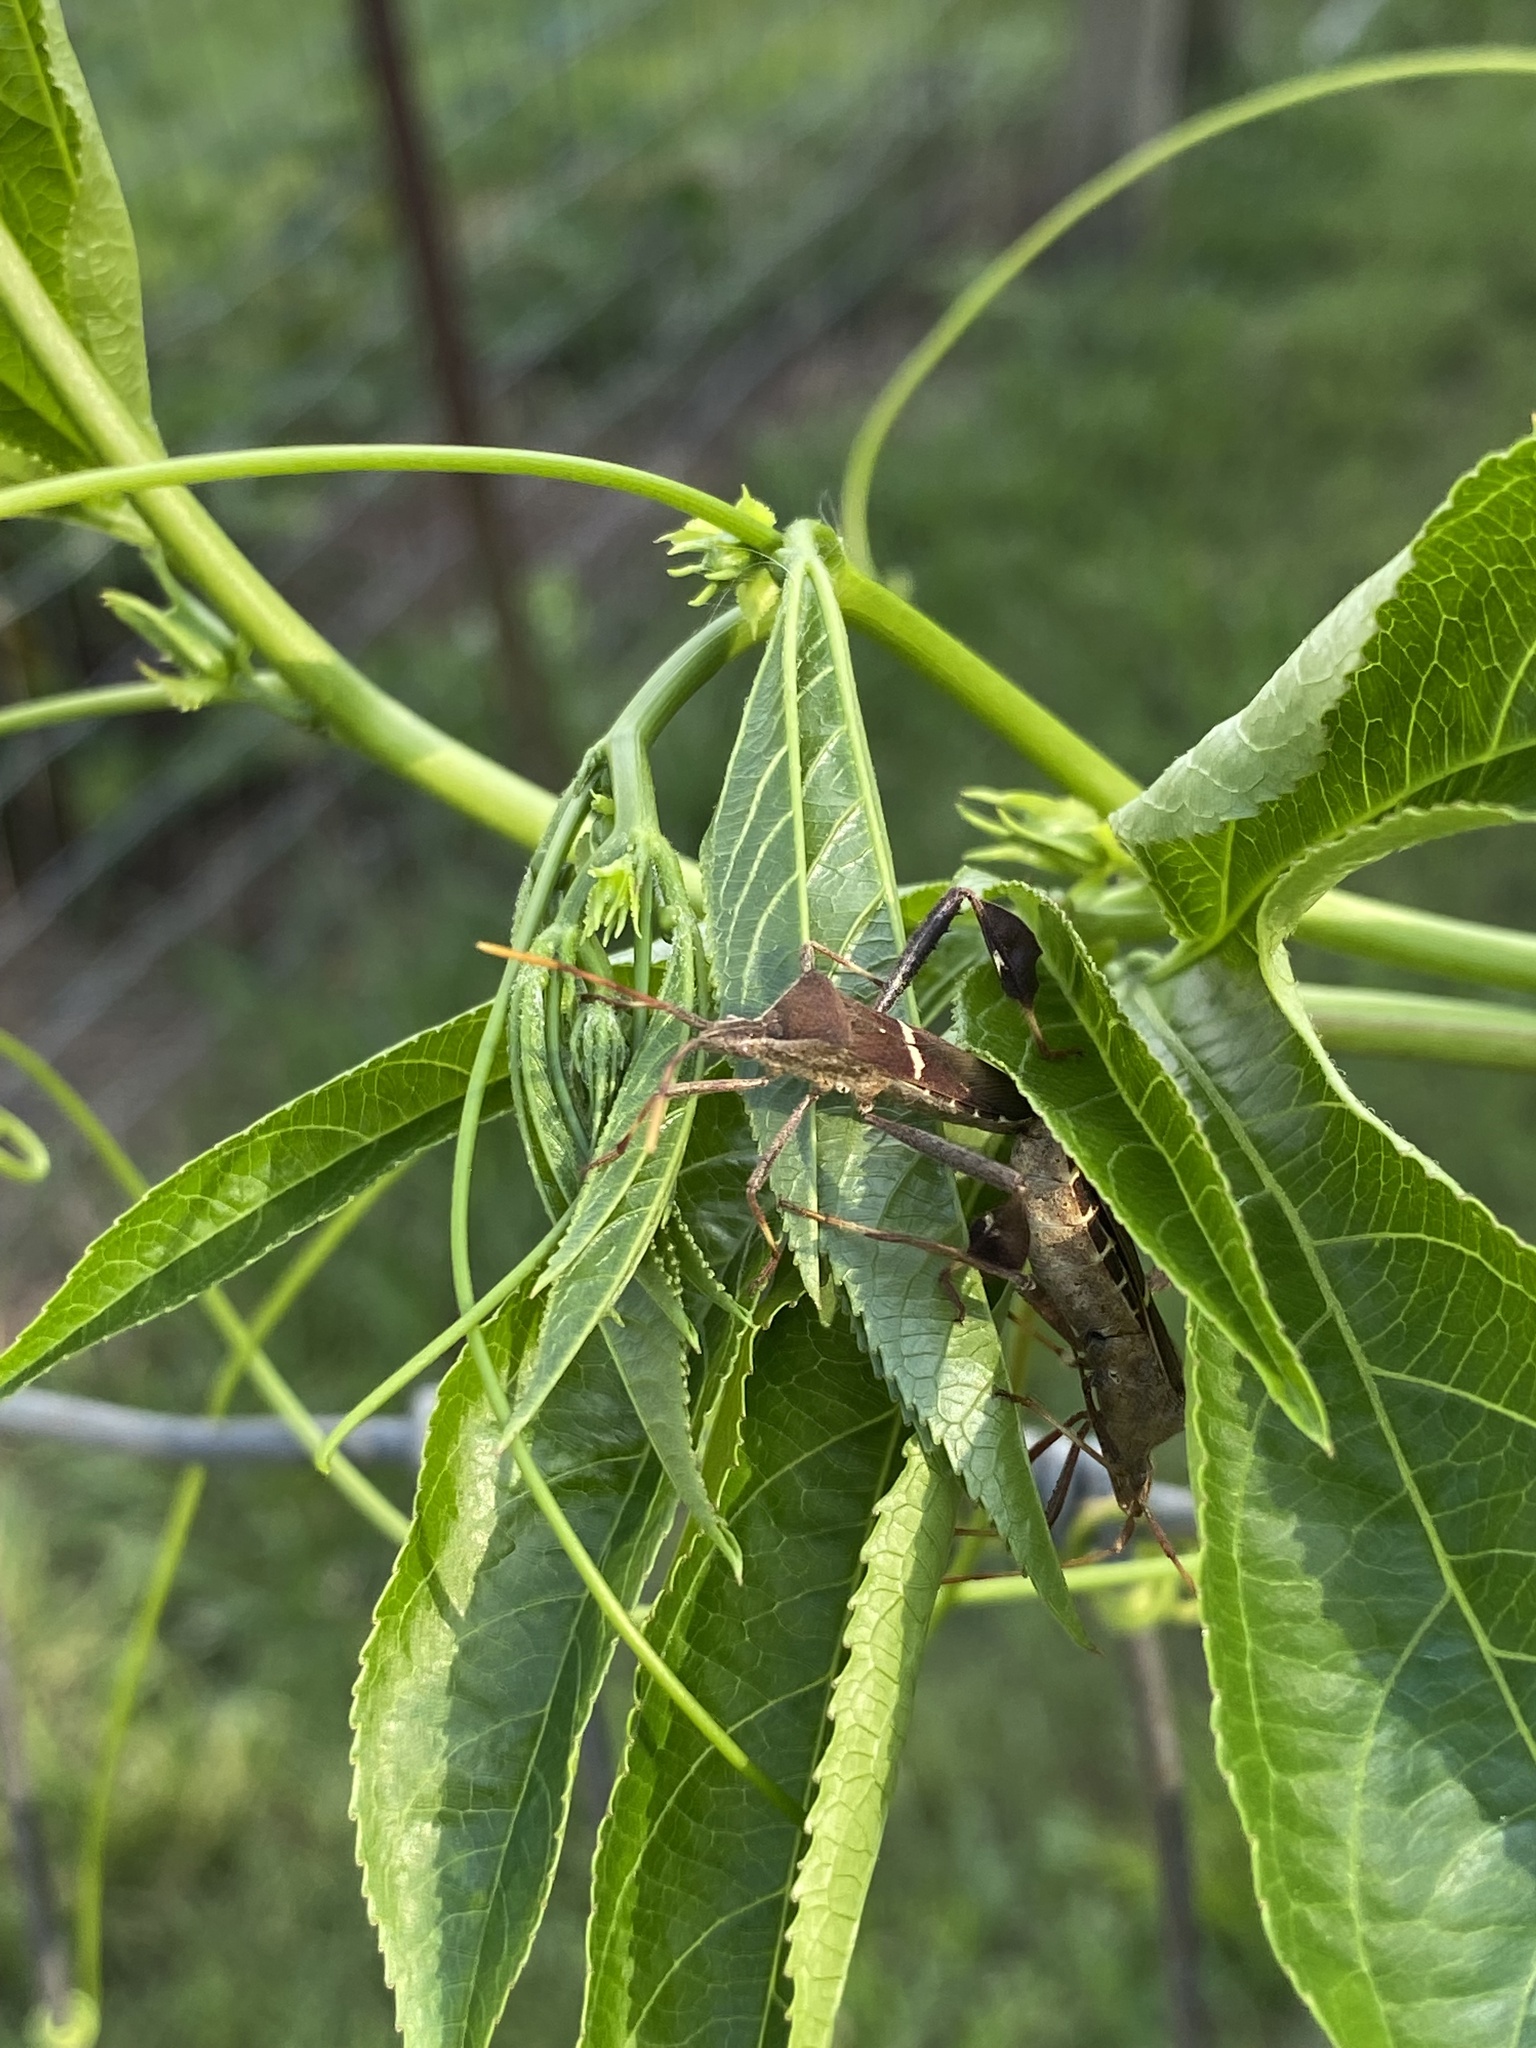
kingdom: Animalia
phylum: Arthropoda
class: Insecta
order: Hemiptera
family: Coreidae
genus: Leptoglossus
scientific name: Leptoglossus phyllopus
